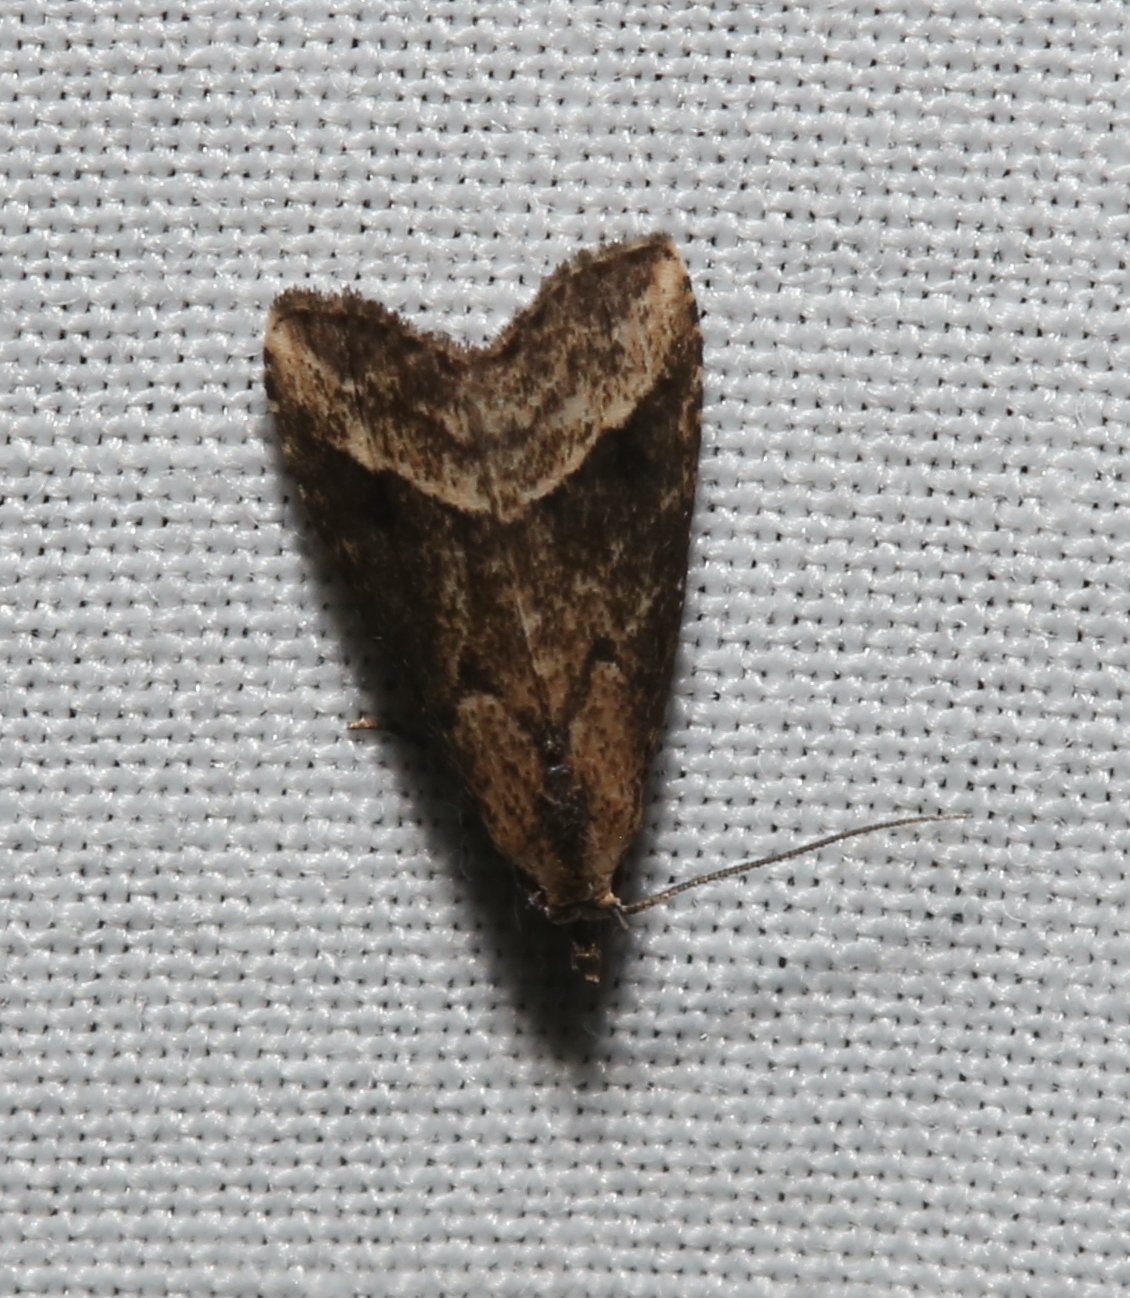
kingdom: Animalia
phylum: Arthropoda
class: Insecta
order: Lepidoptera
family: Erebidae
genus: Schrankia
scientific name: Schrankia
